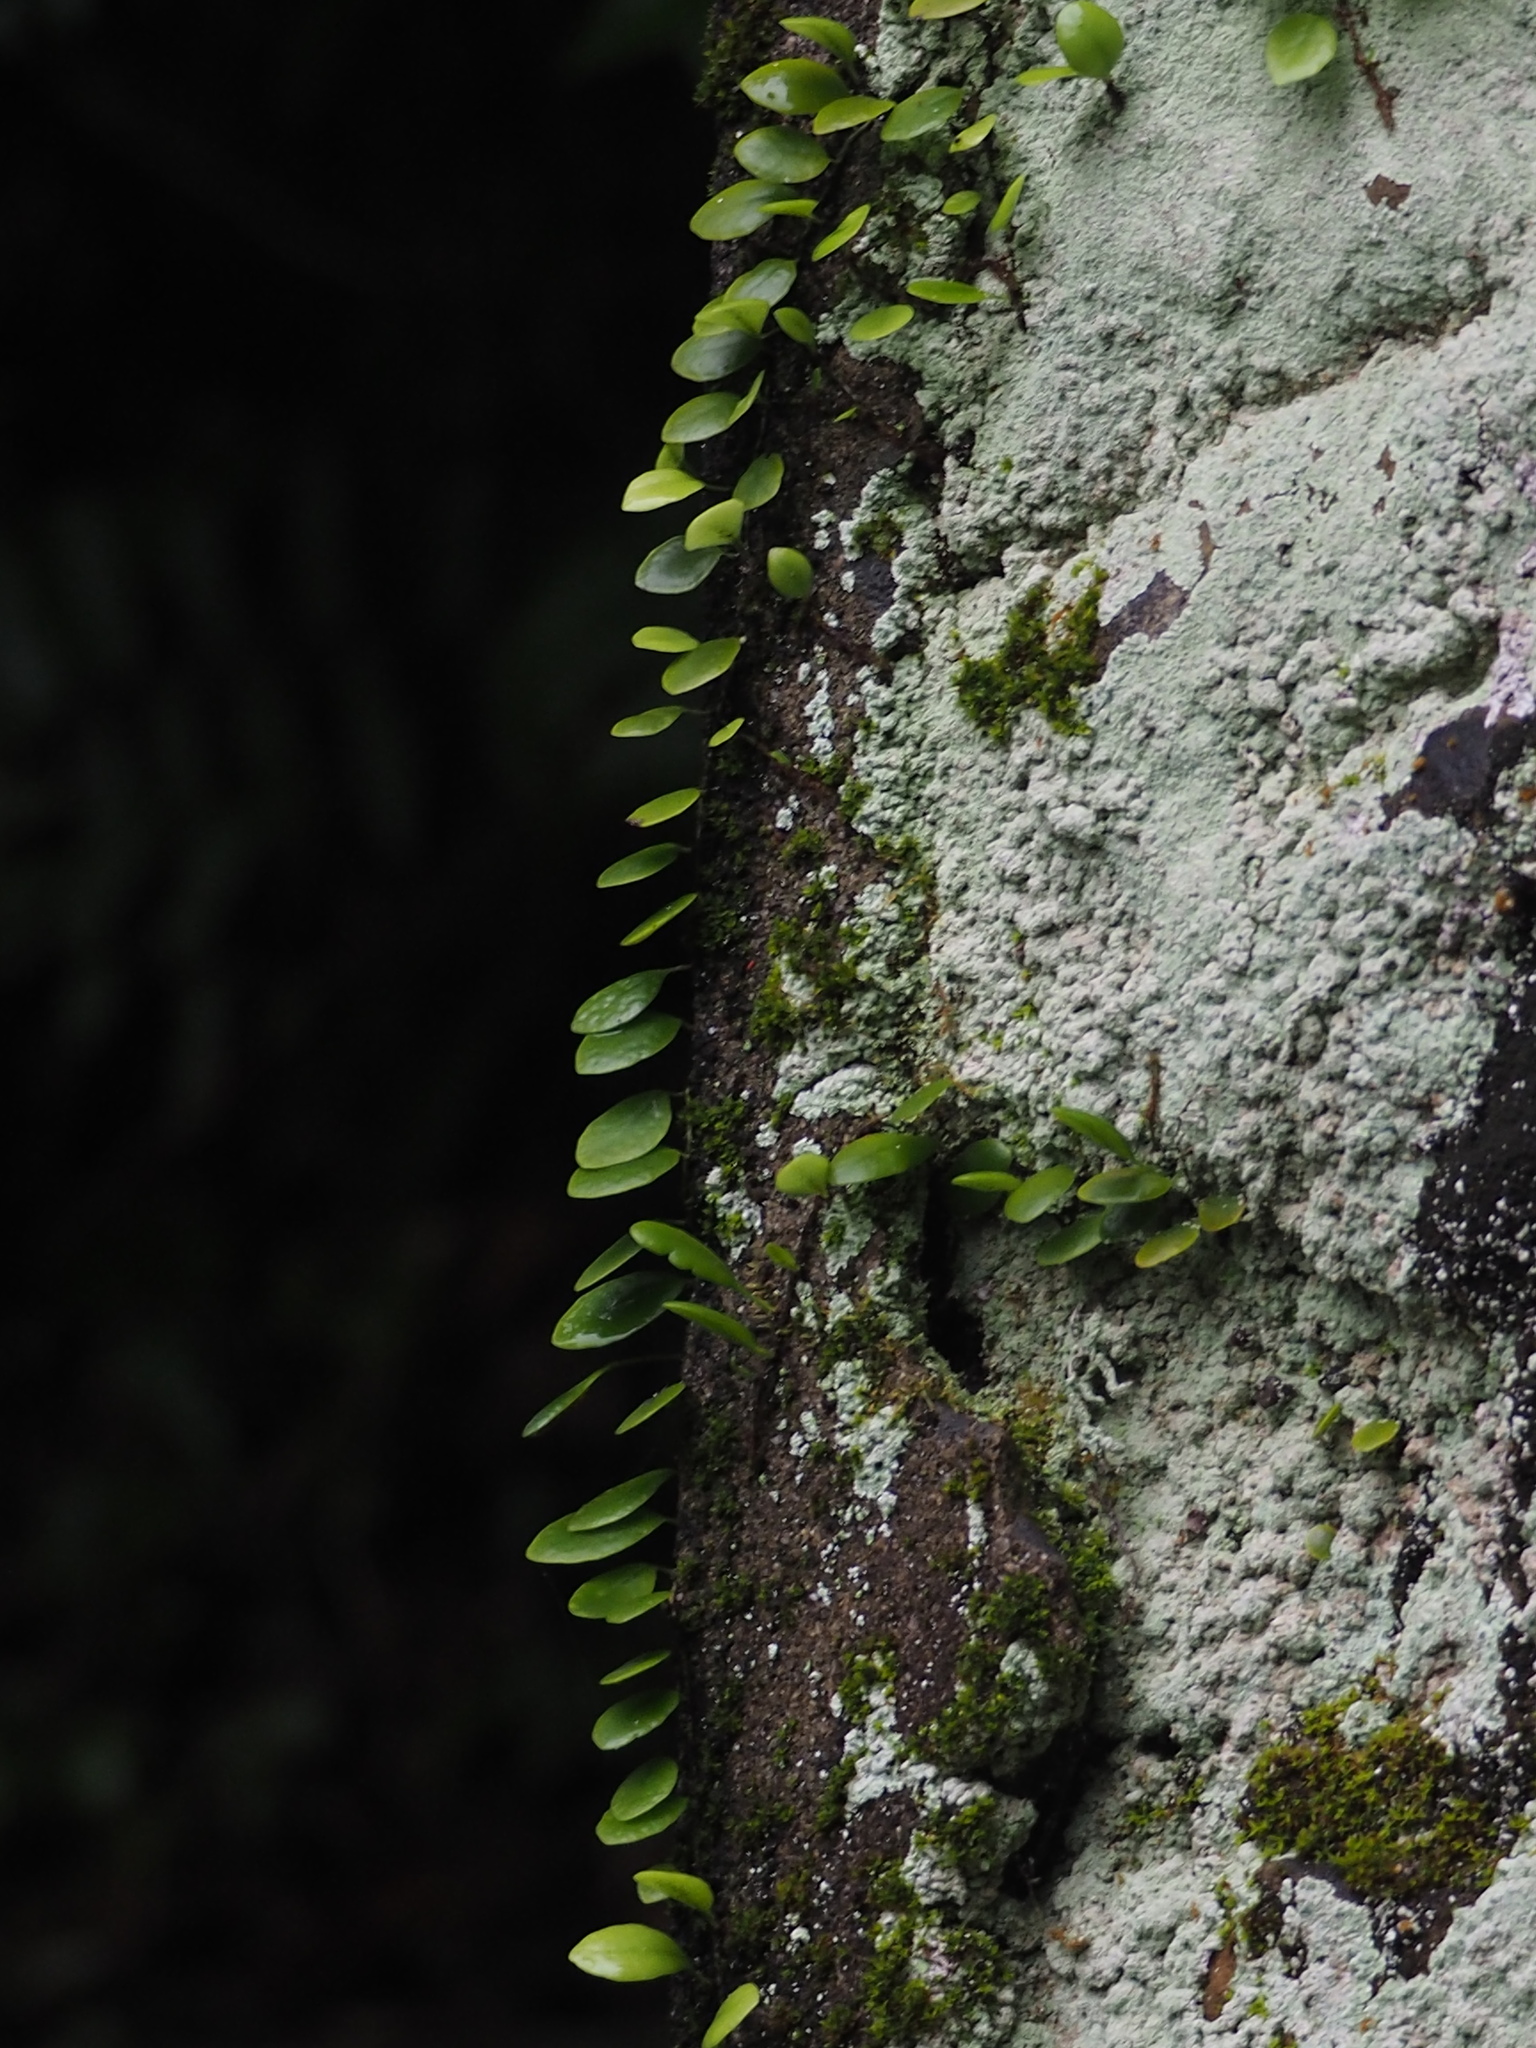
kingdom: Plantae
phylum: Tracheophyta
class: Polypodiopsida
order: Polypodiales
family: Polypodiaceae
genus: Lepisorus
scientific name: Lepisorus microphyllus
